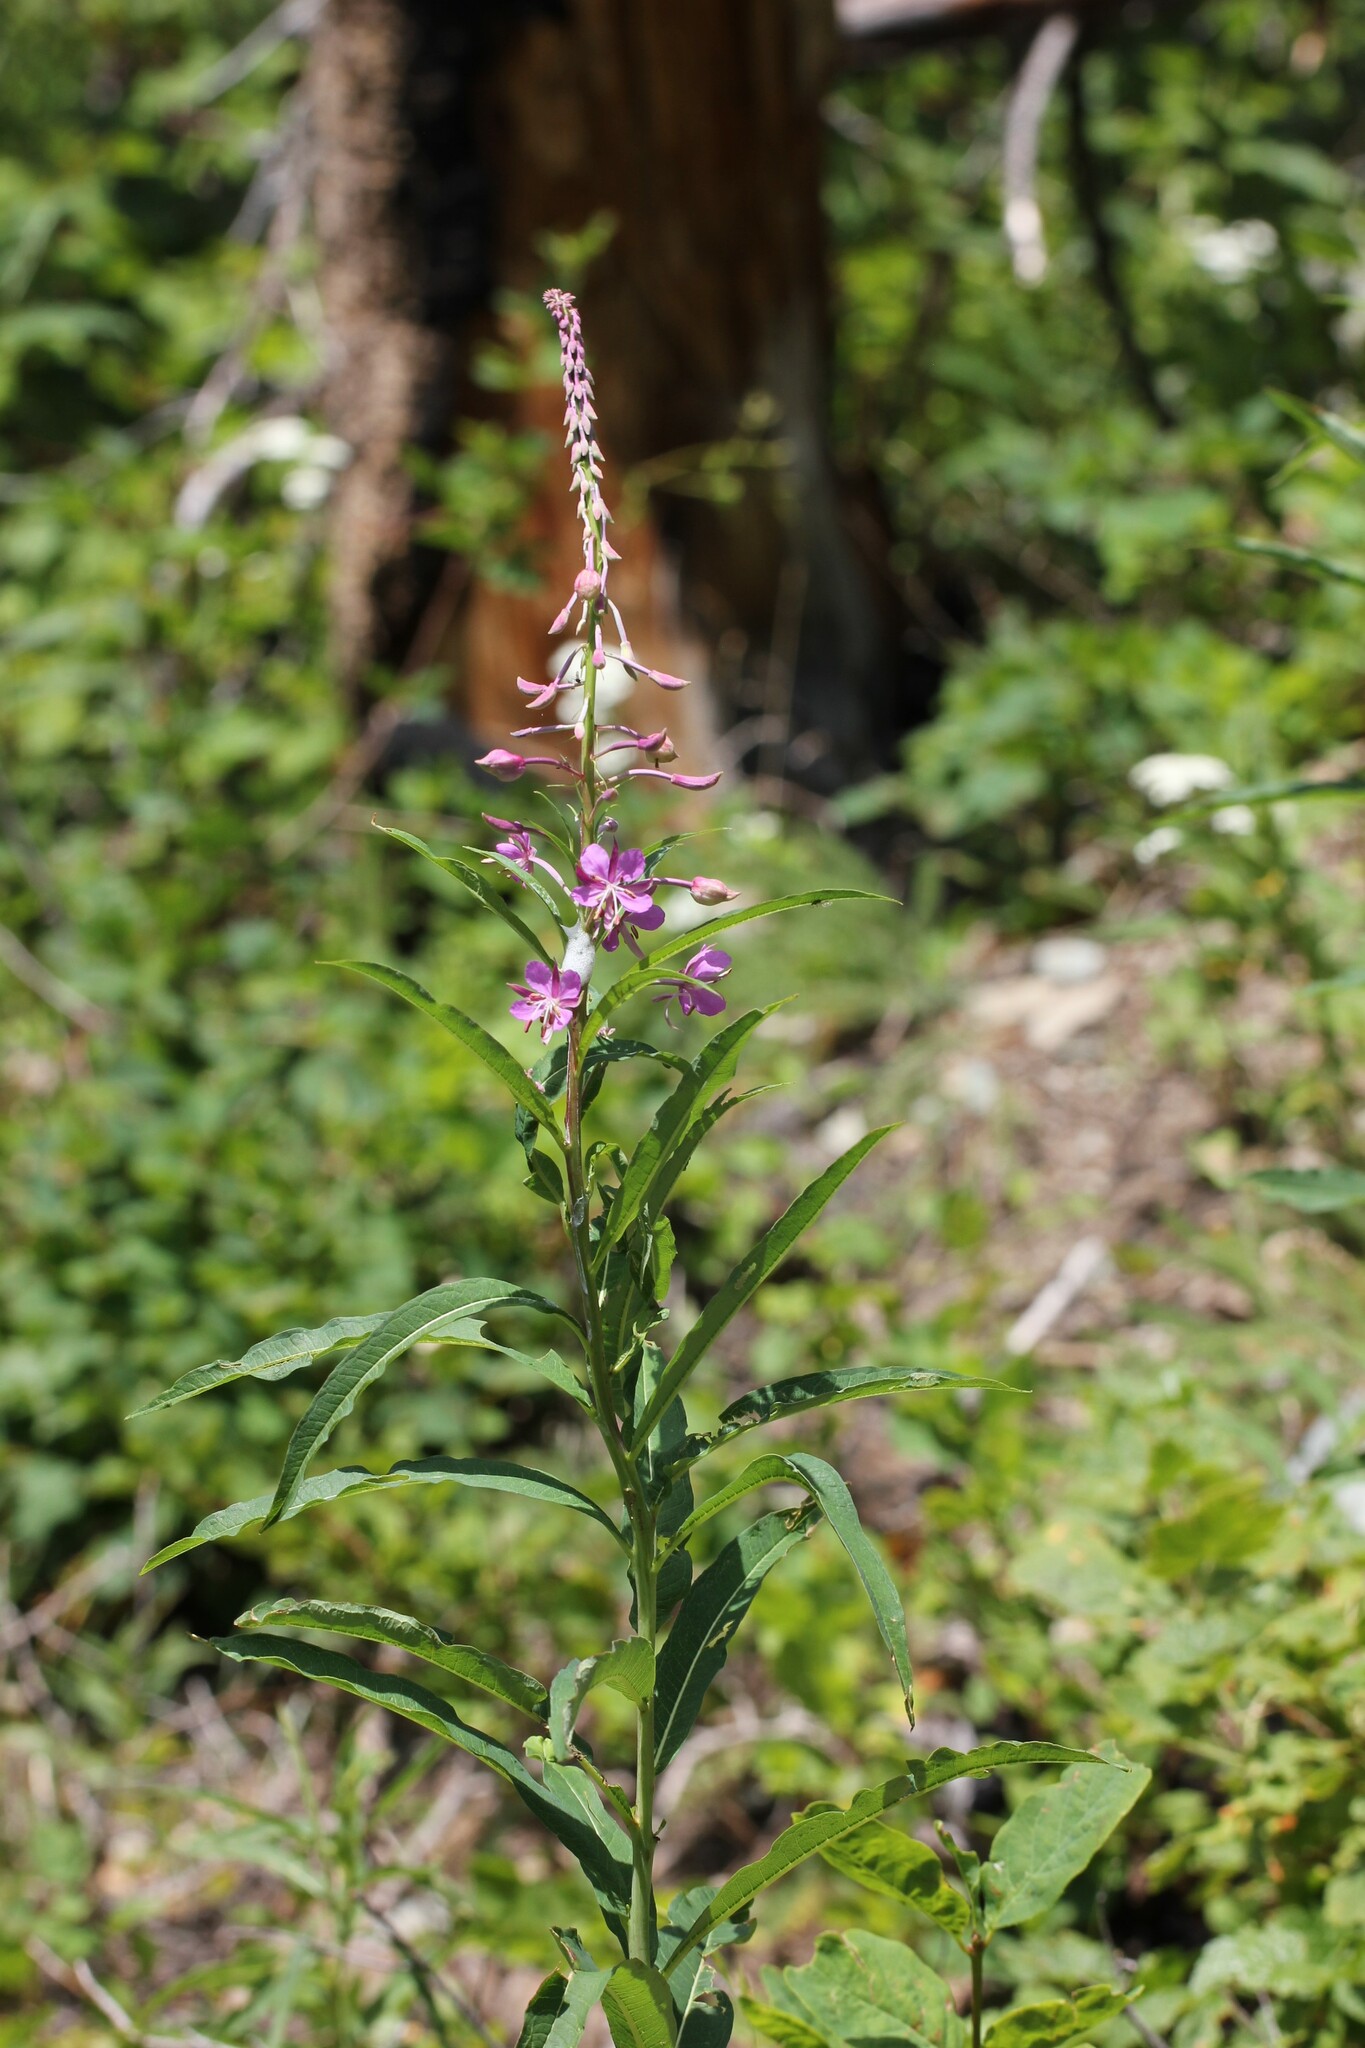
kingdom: Plantae
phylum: Tracheophyta
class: Magnoliopsida
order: Myrtales
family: Onagraceae
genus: Chamaenerion
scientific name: Chamaenerion angustifolium
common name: Fireweed
